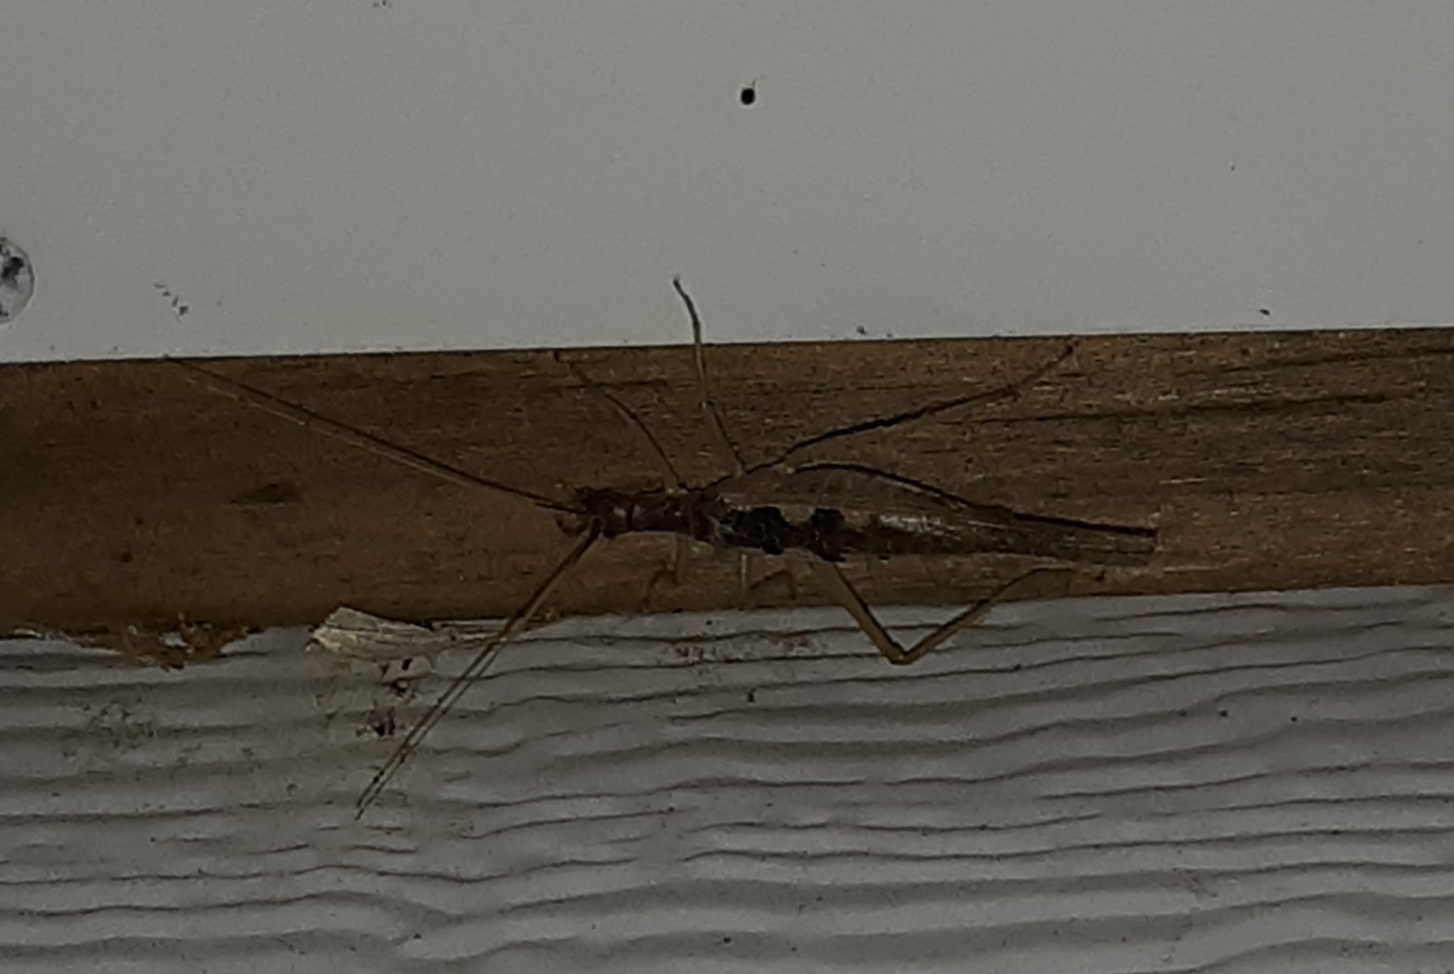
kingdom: Animalia
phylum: Arthropoda
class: Insecta
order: Orthoptera
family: Gryllidae
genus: Neoxabea
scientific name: Neoxabea bipunctata
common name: Two-spotted tree cricket
